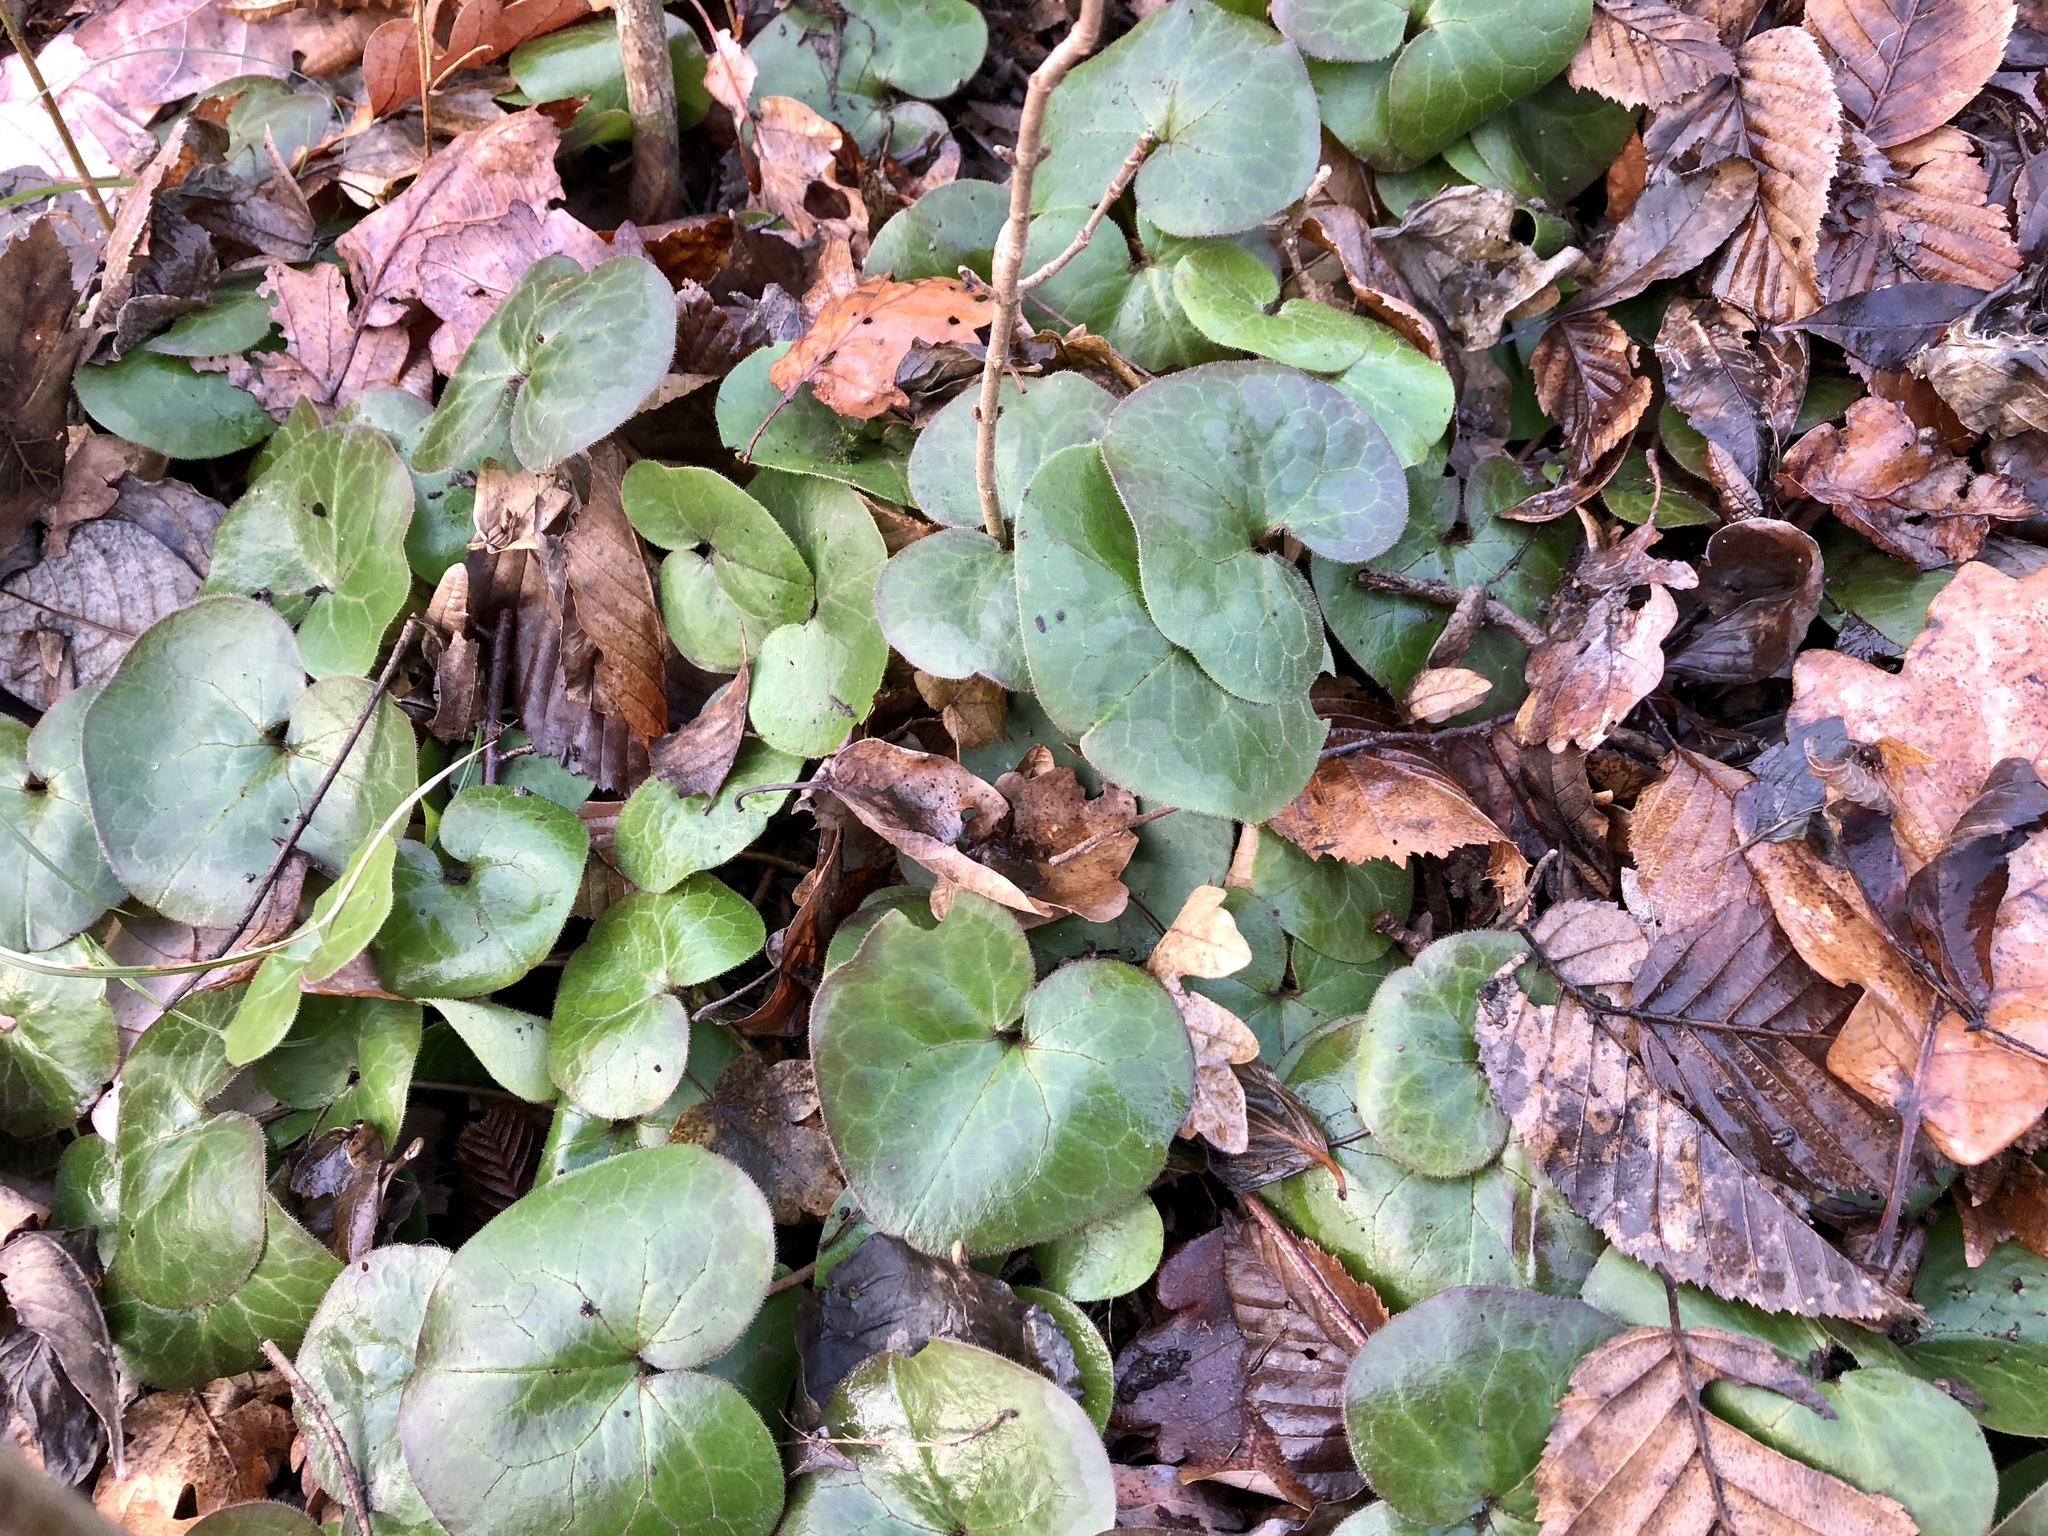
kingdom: Plantae
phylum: Tracheophyta
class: Magnoliopsida
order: Piperales
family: Aristolochiaceae
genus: Asarum
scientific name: Asarum europaeum
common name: Asarabacca
